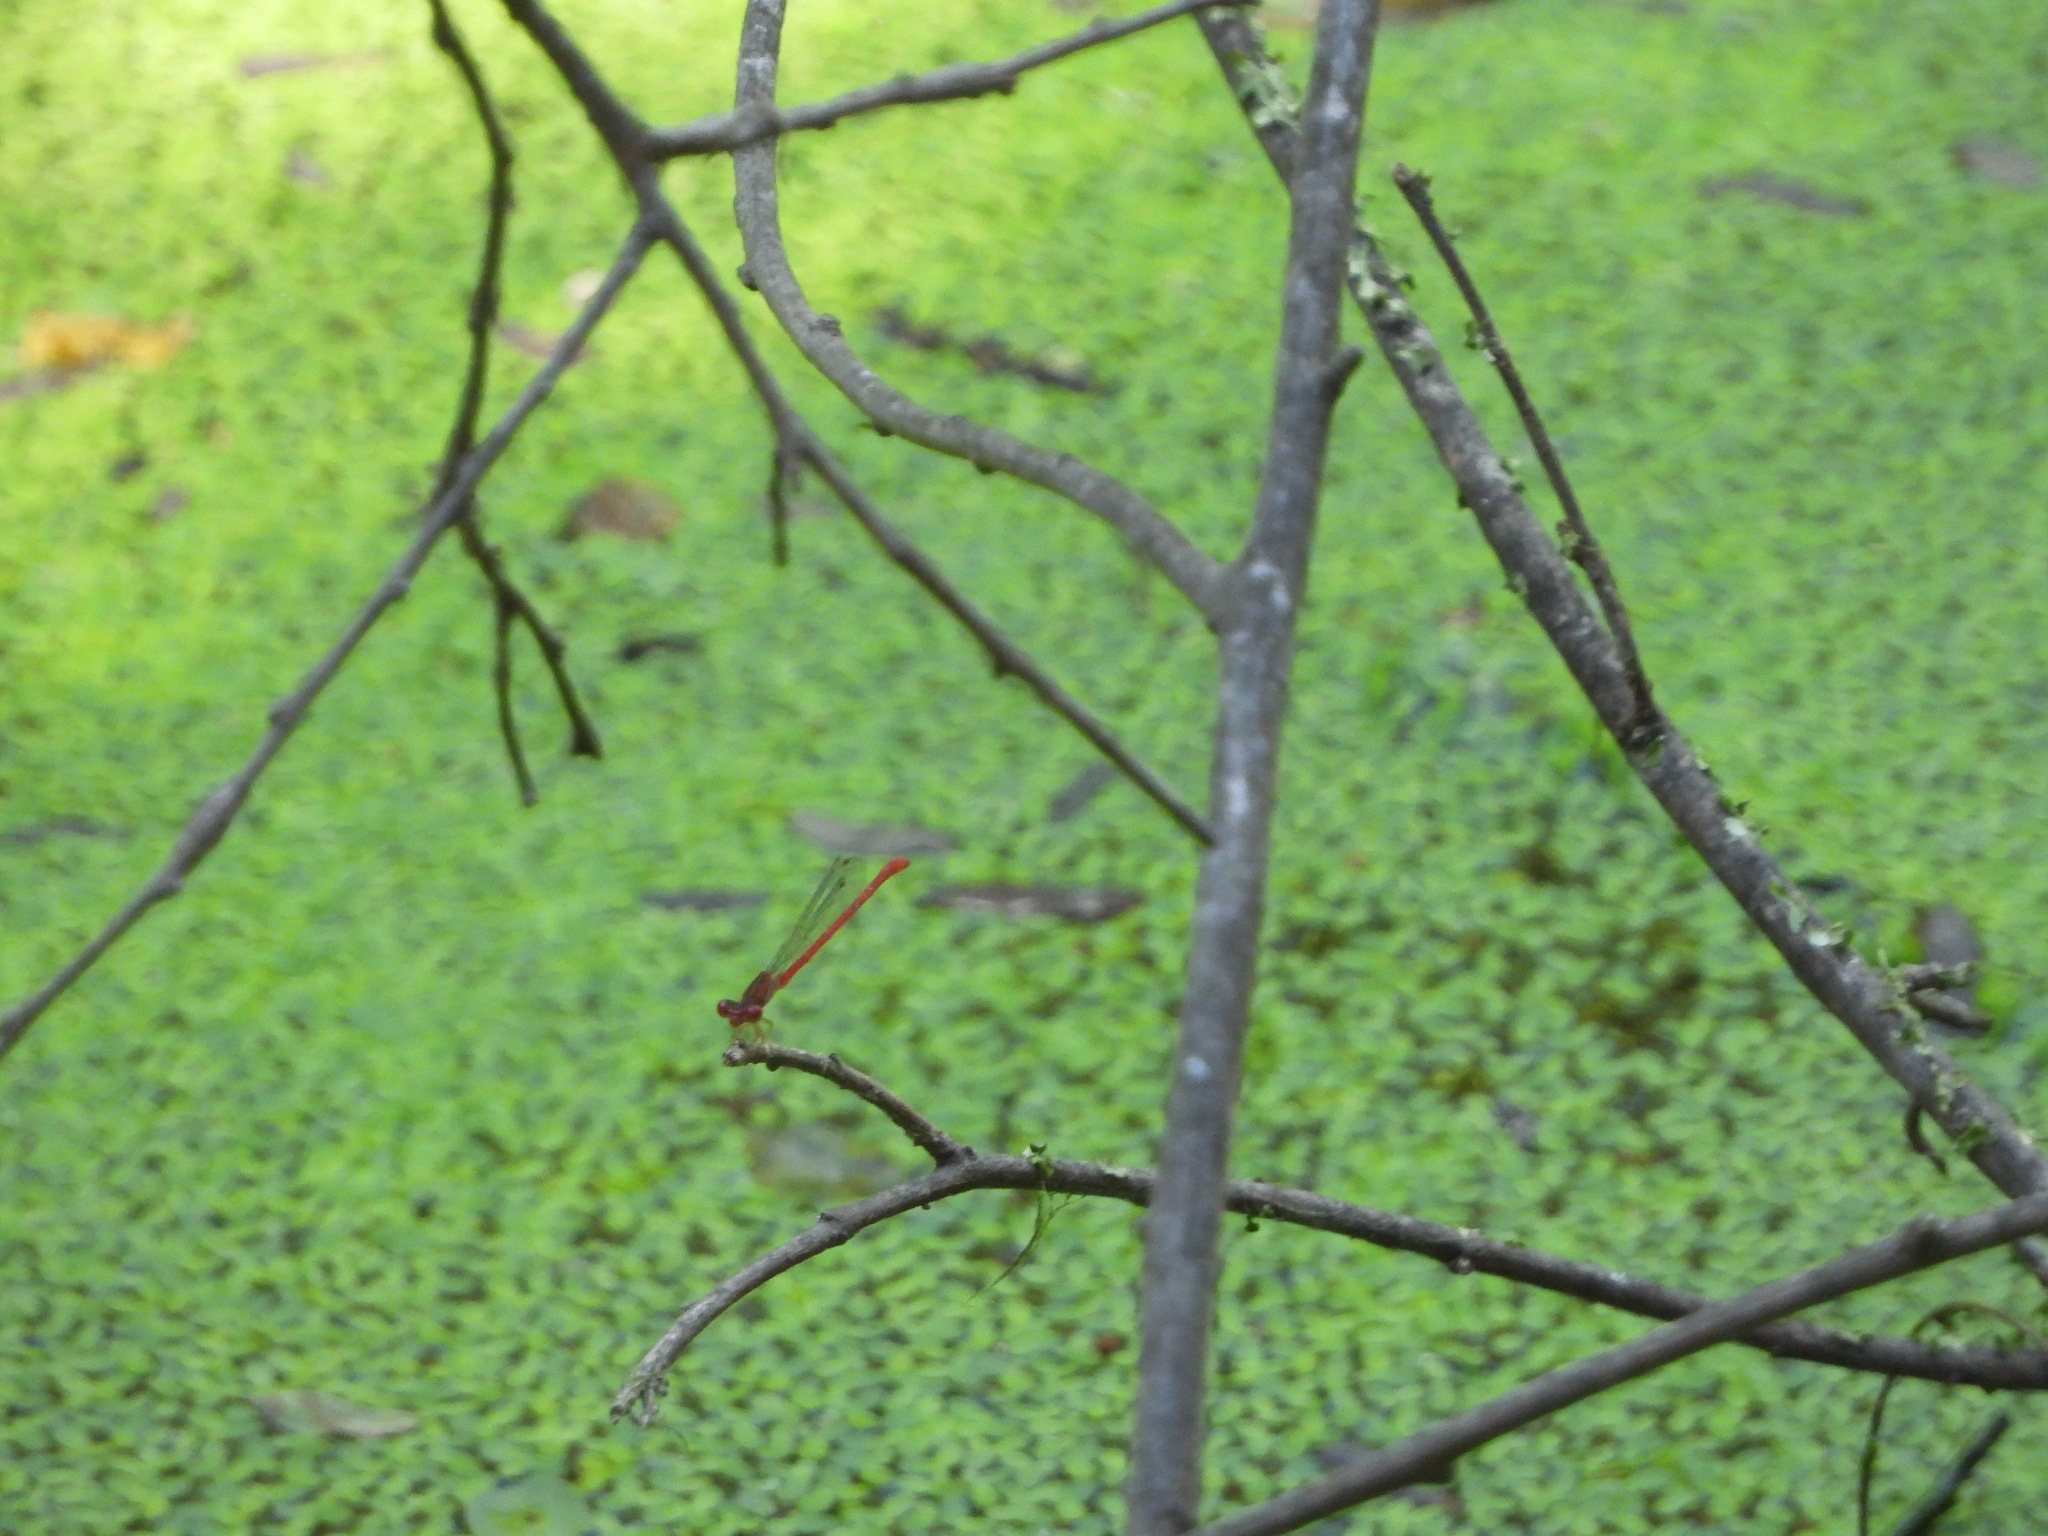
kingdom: Animalia
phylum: Arthropoda
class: Insecta
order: Odonata
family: Coenagrionidae
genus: Telebasis
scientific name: Telebasis salva
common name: Desert firetail
